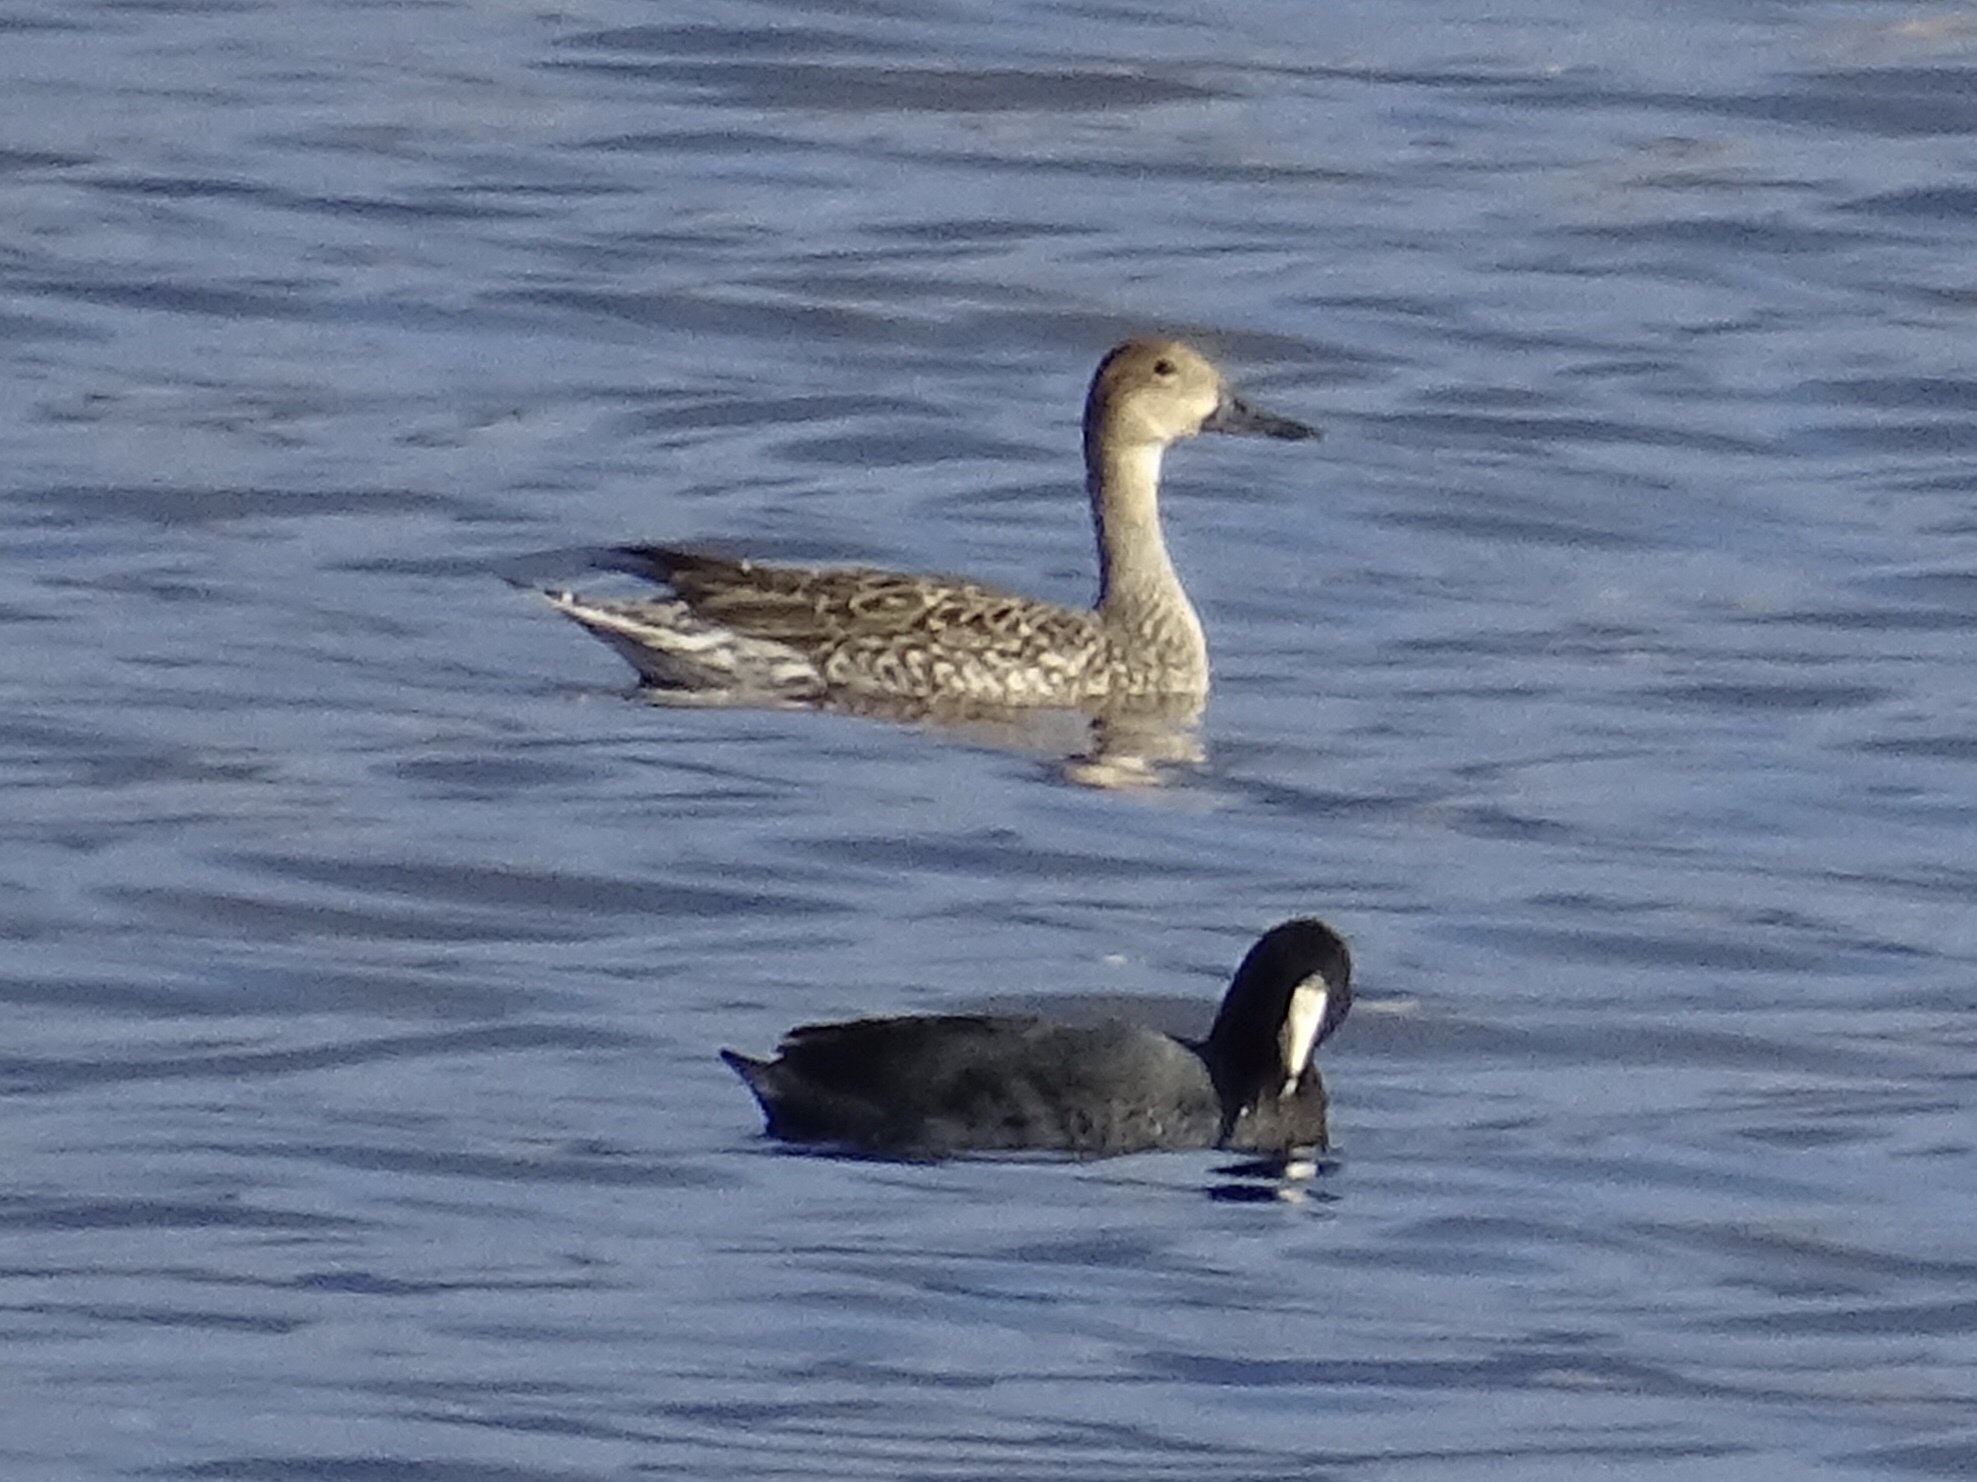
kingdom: Animalia
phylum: Chordata
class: Aves
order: Anseriformes
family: Anatidae
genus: Anas
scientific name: Anas acuta
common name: Northern pintail
